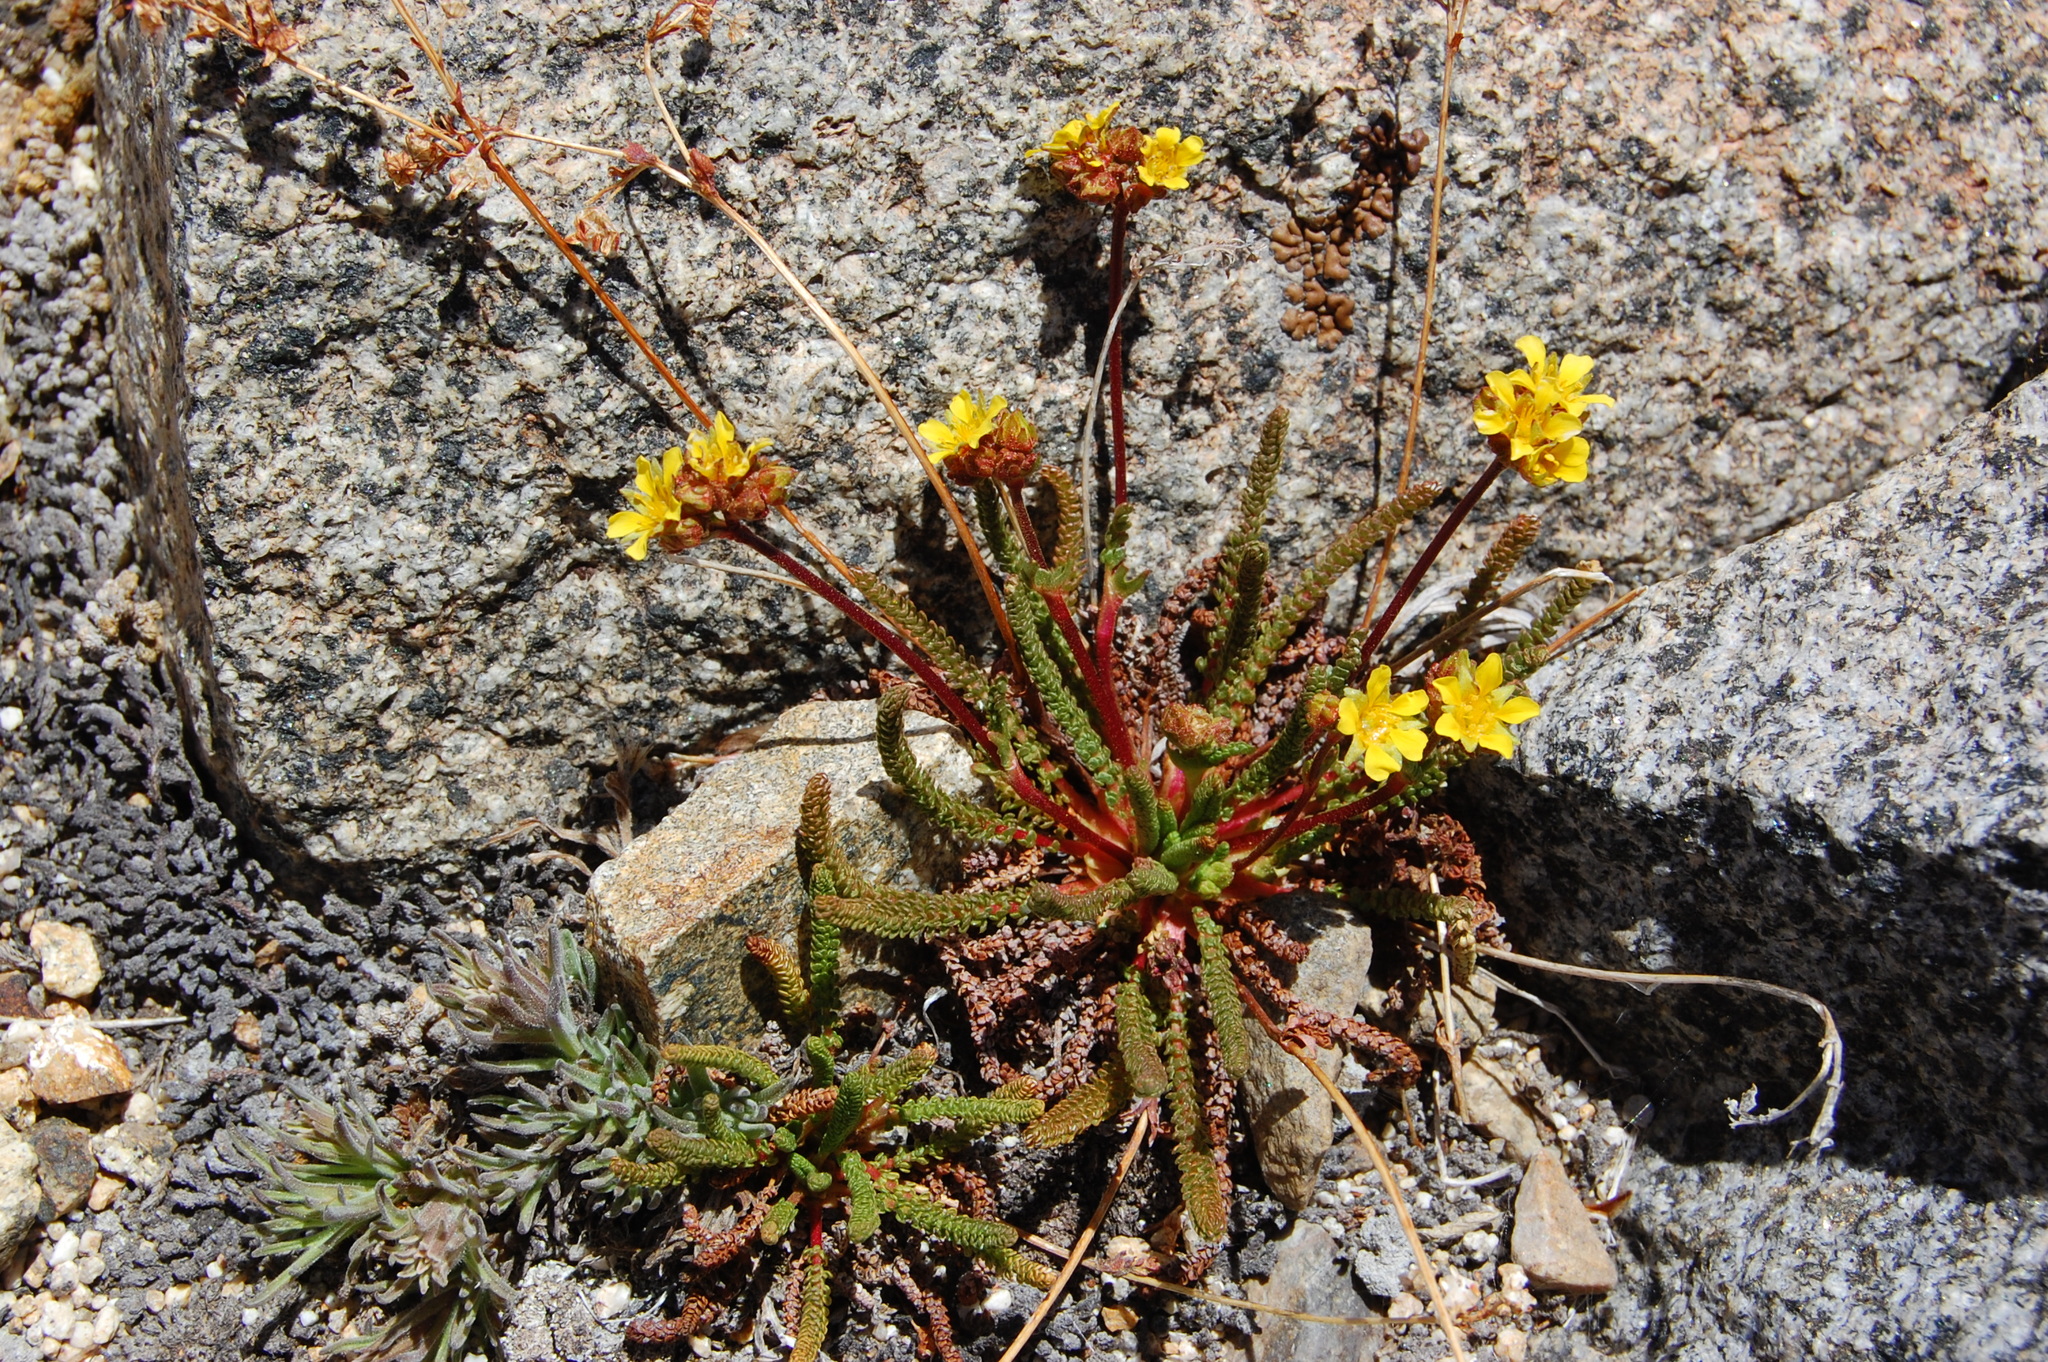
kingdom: Plantae
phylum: Tracheophyta
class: Magnoliopsida
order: Rosales
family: Rosaceae
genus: Potentilla
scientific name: Potentilla lycopodioides
